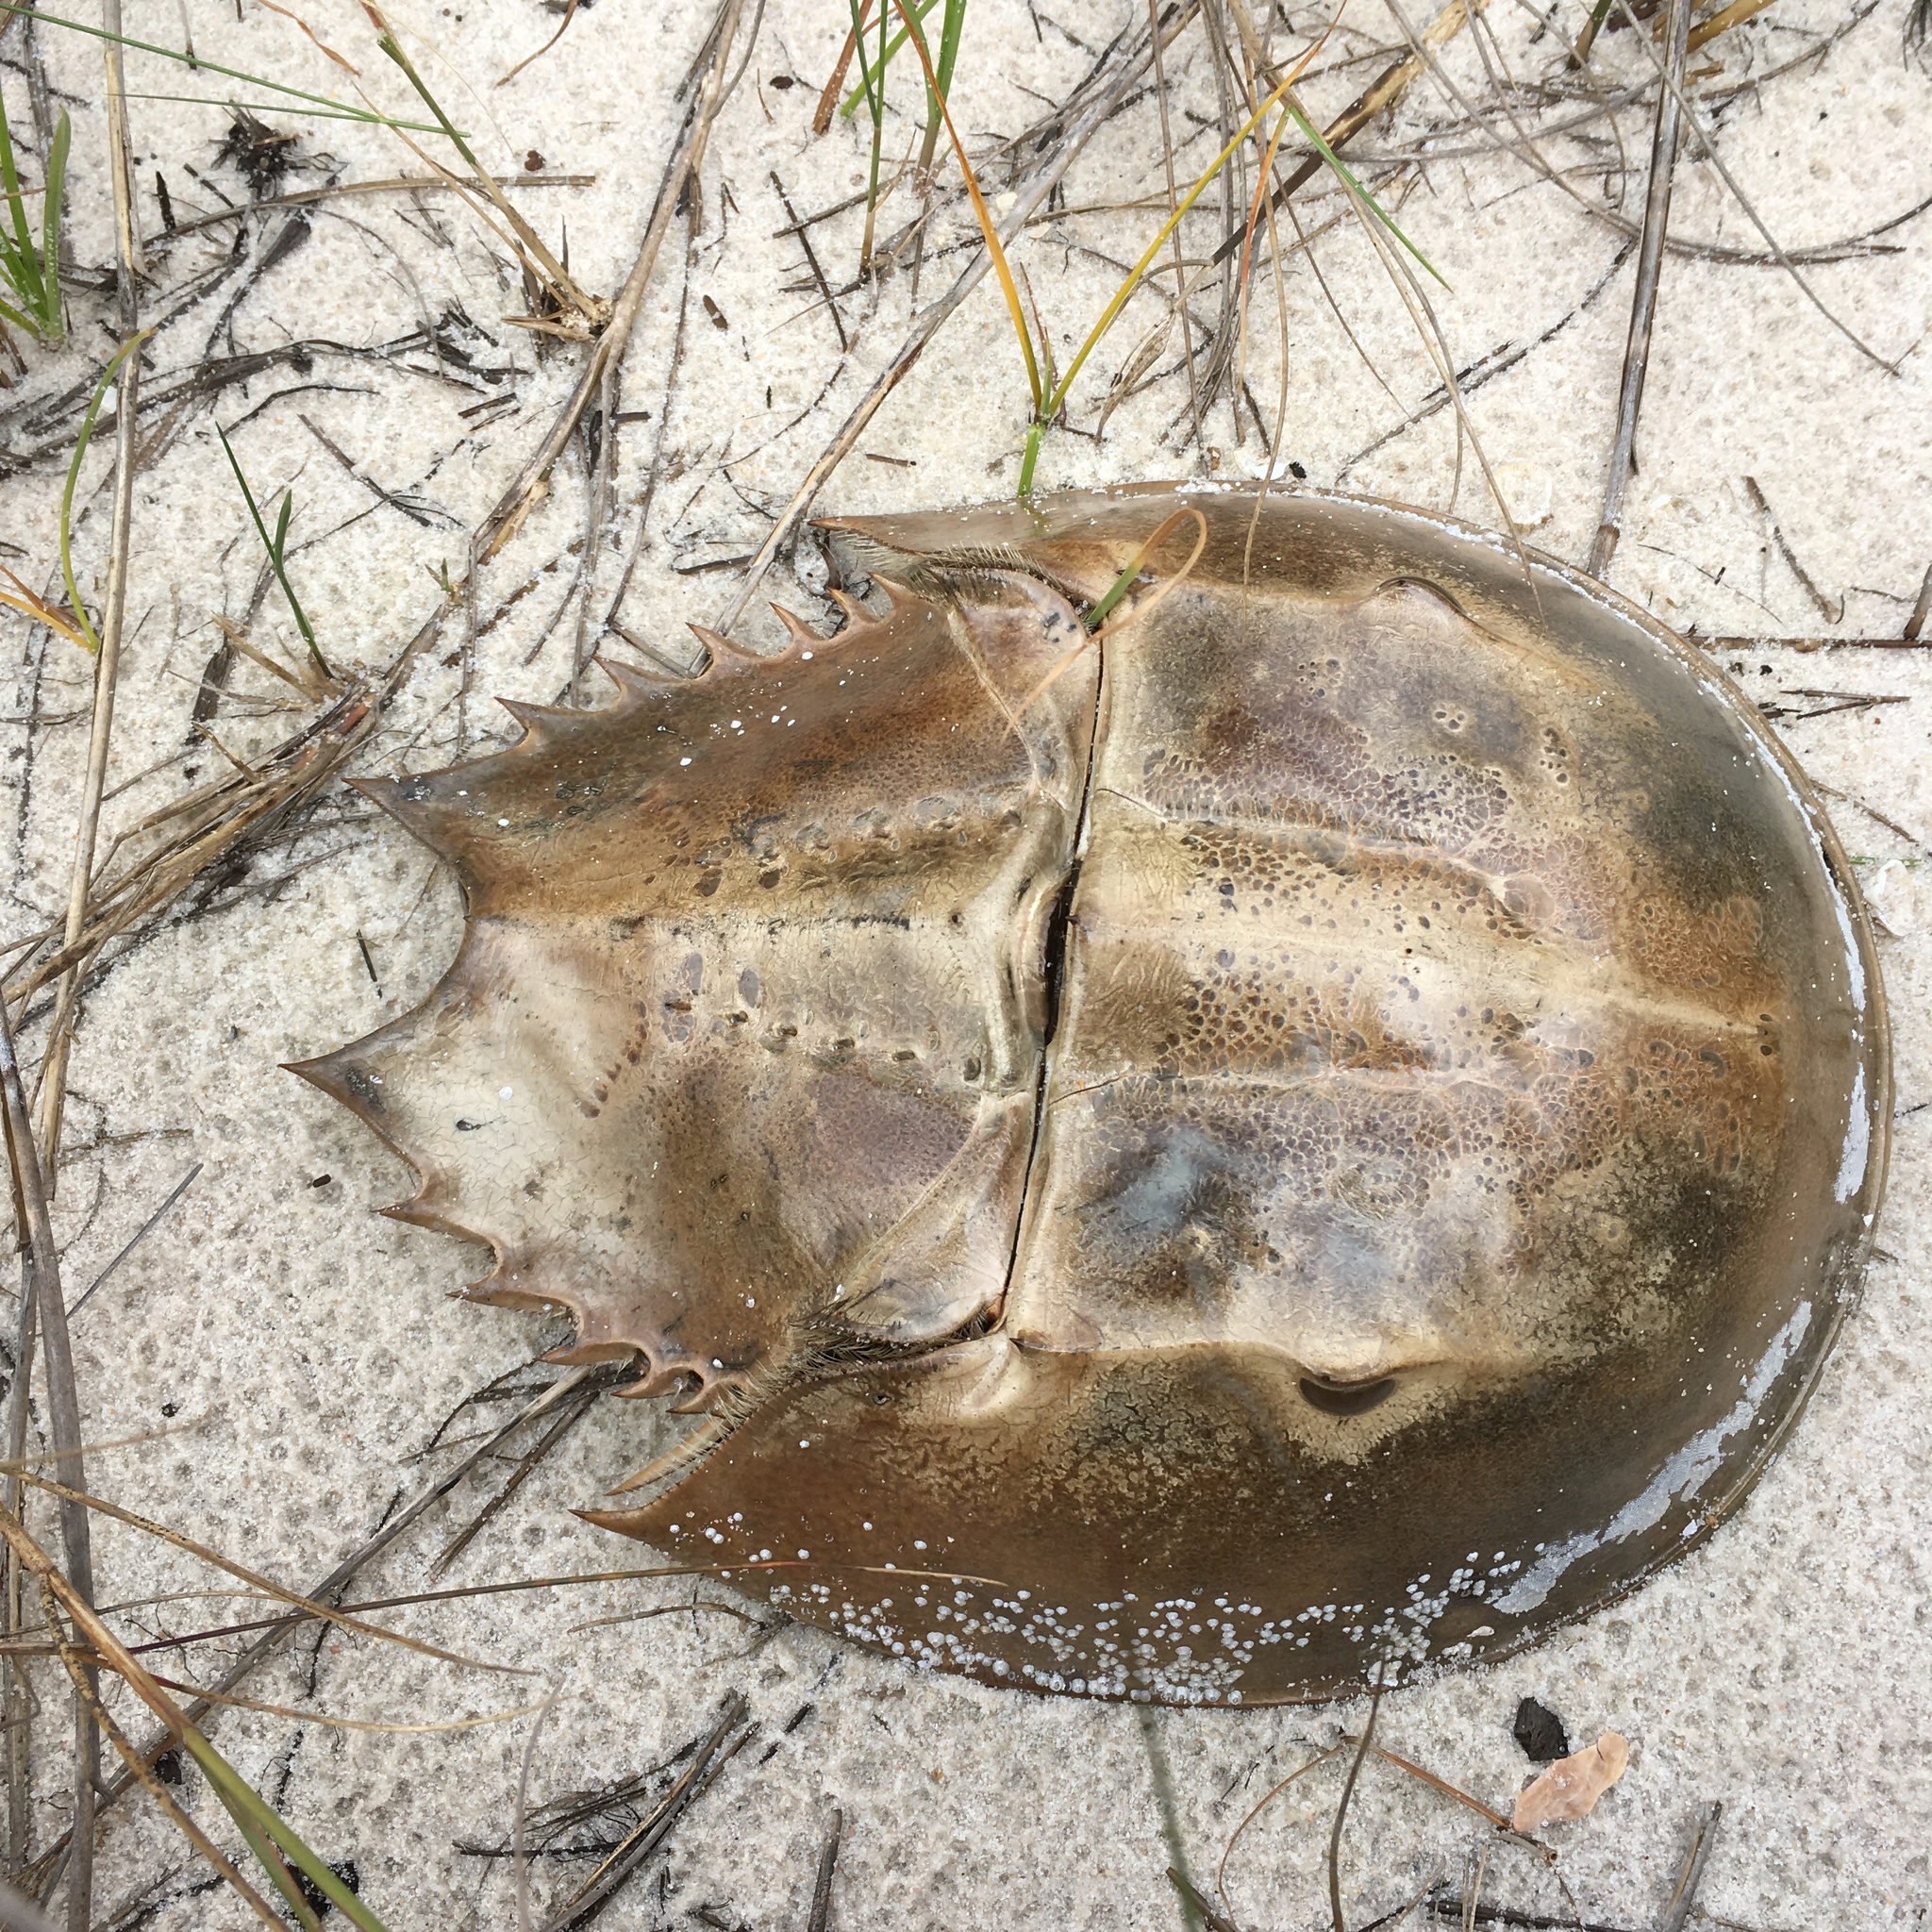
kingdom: Animalia
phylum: Arthropoda
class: Merostomata
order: Xiphosurida
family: Limulidae
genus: Limulus
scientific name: Limulus polyphemus
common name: Horseshoe crab
